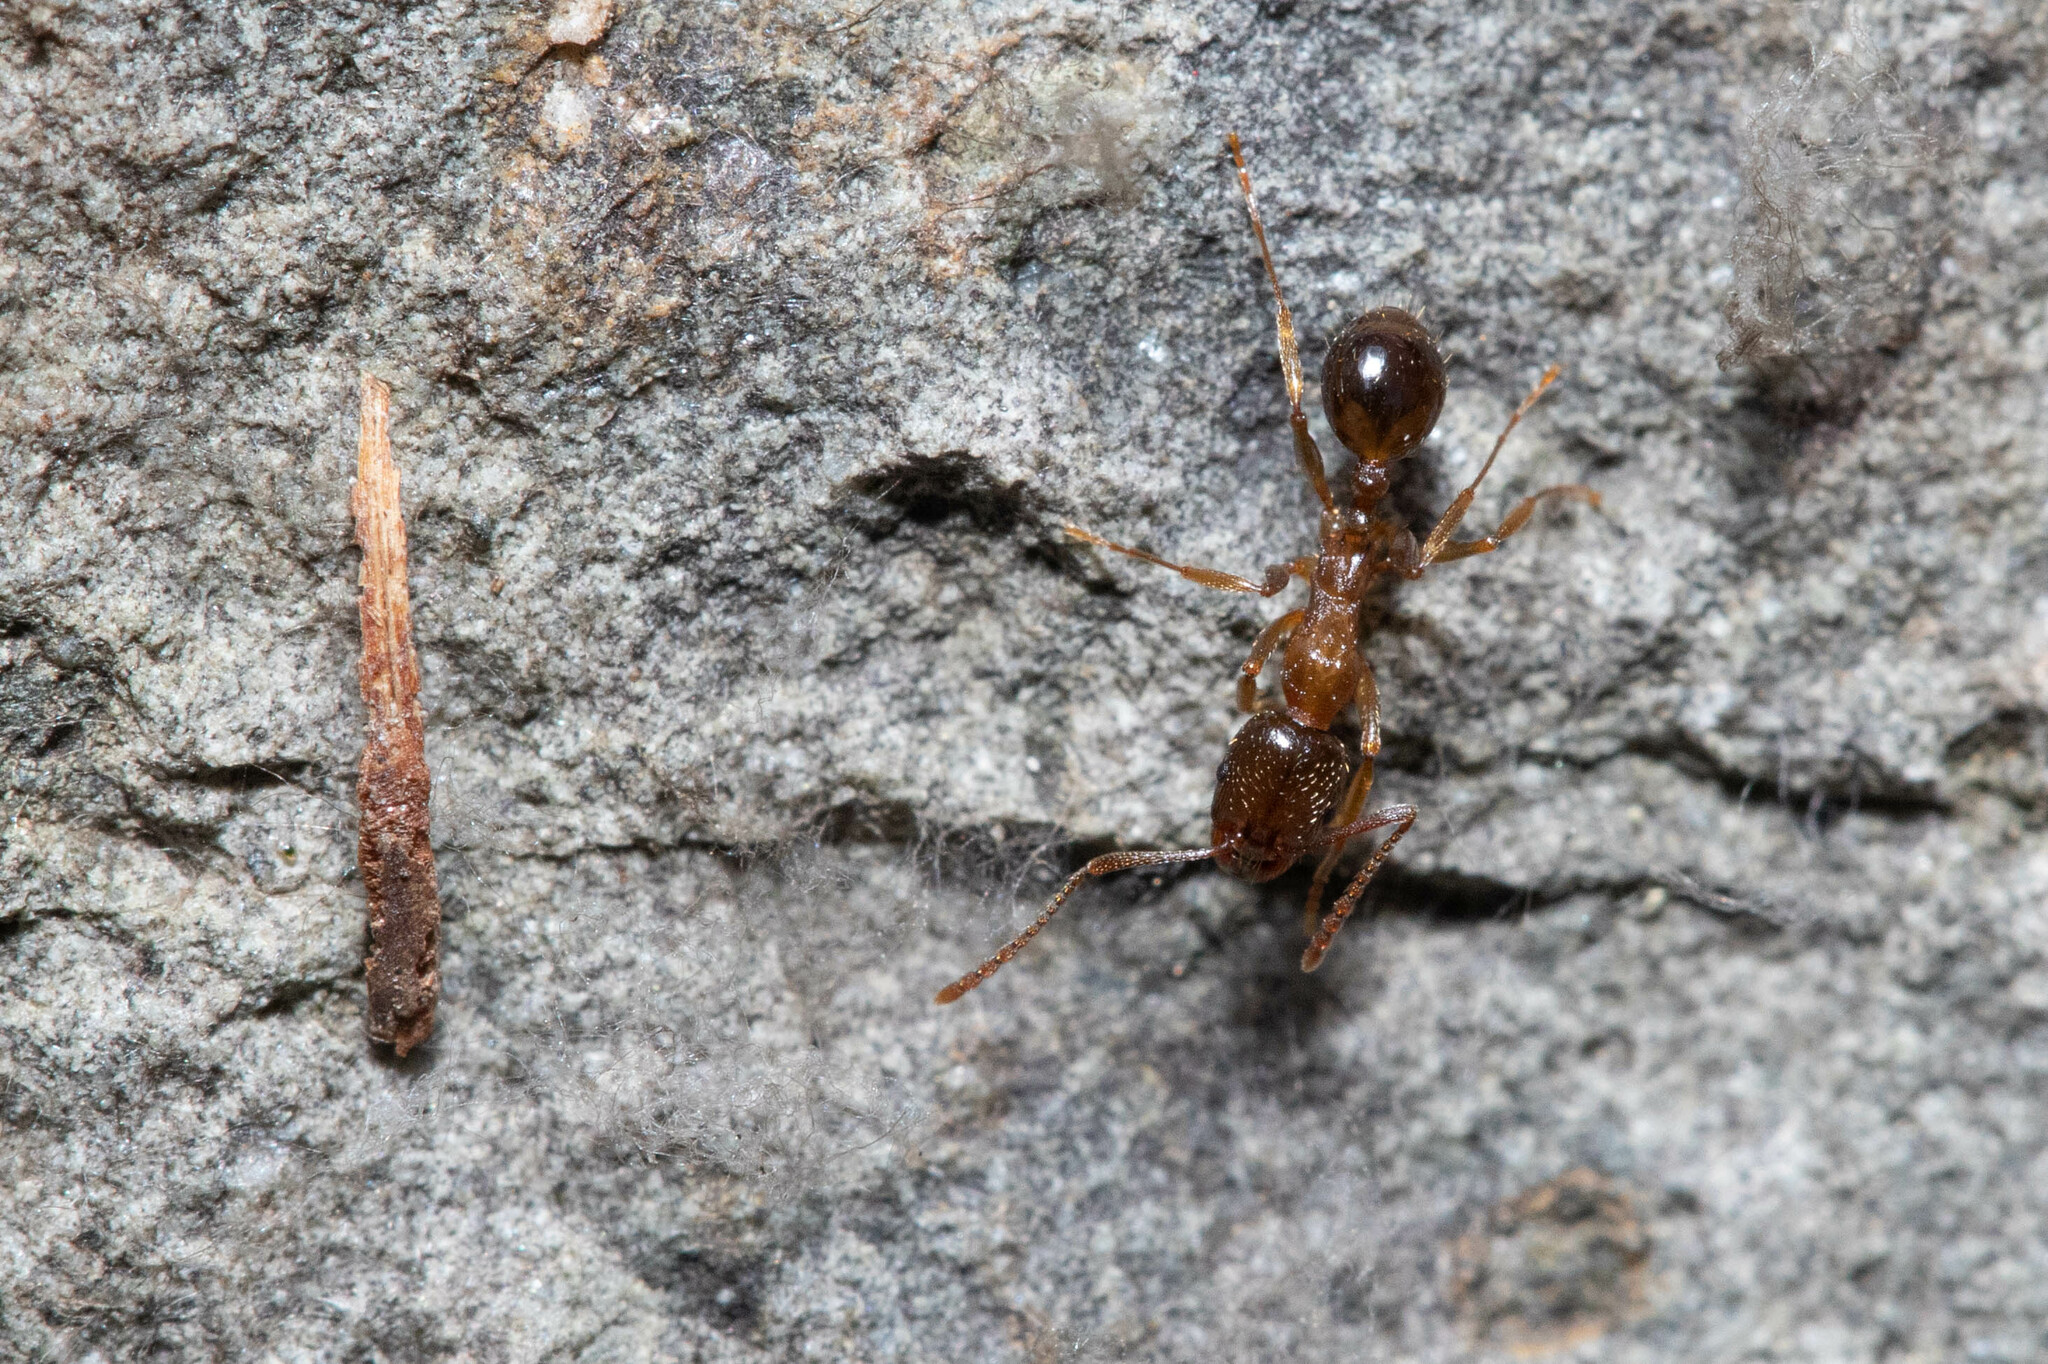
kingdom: Animalia
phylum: Arthropoda
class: Insecta
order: Hymenoptera
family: Formicidae
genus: Aphaenogaster
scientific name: Aphaenogaster occidentalis
